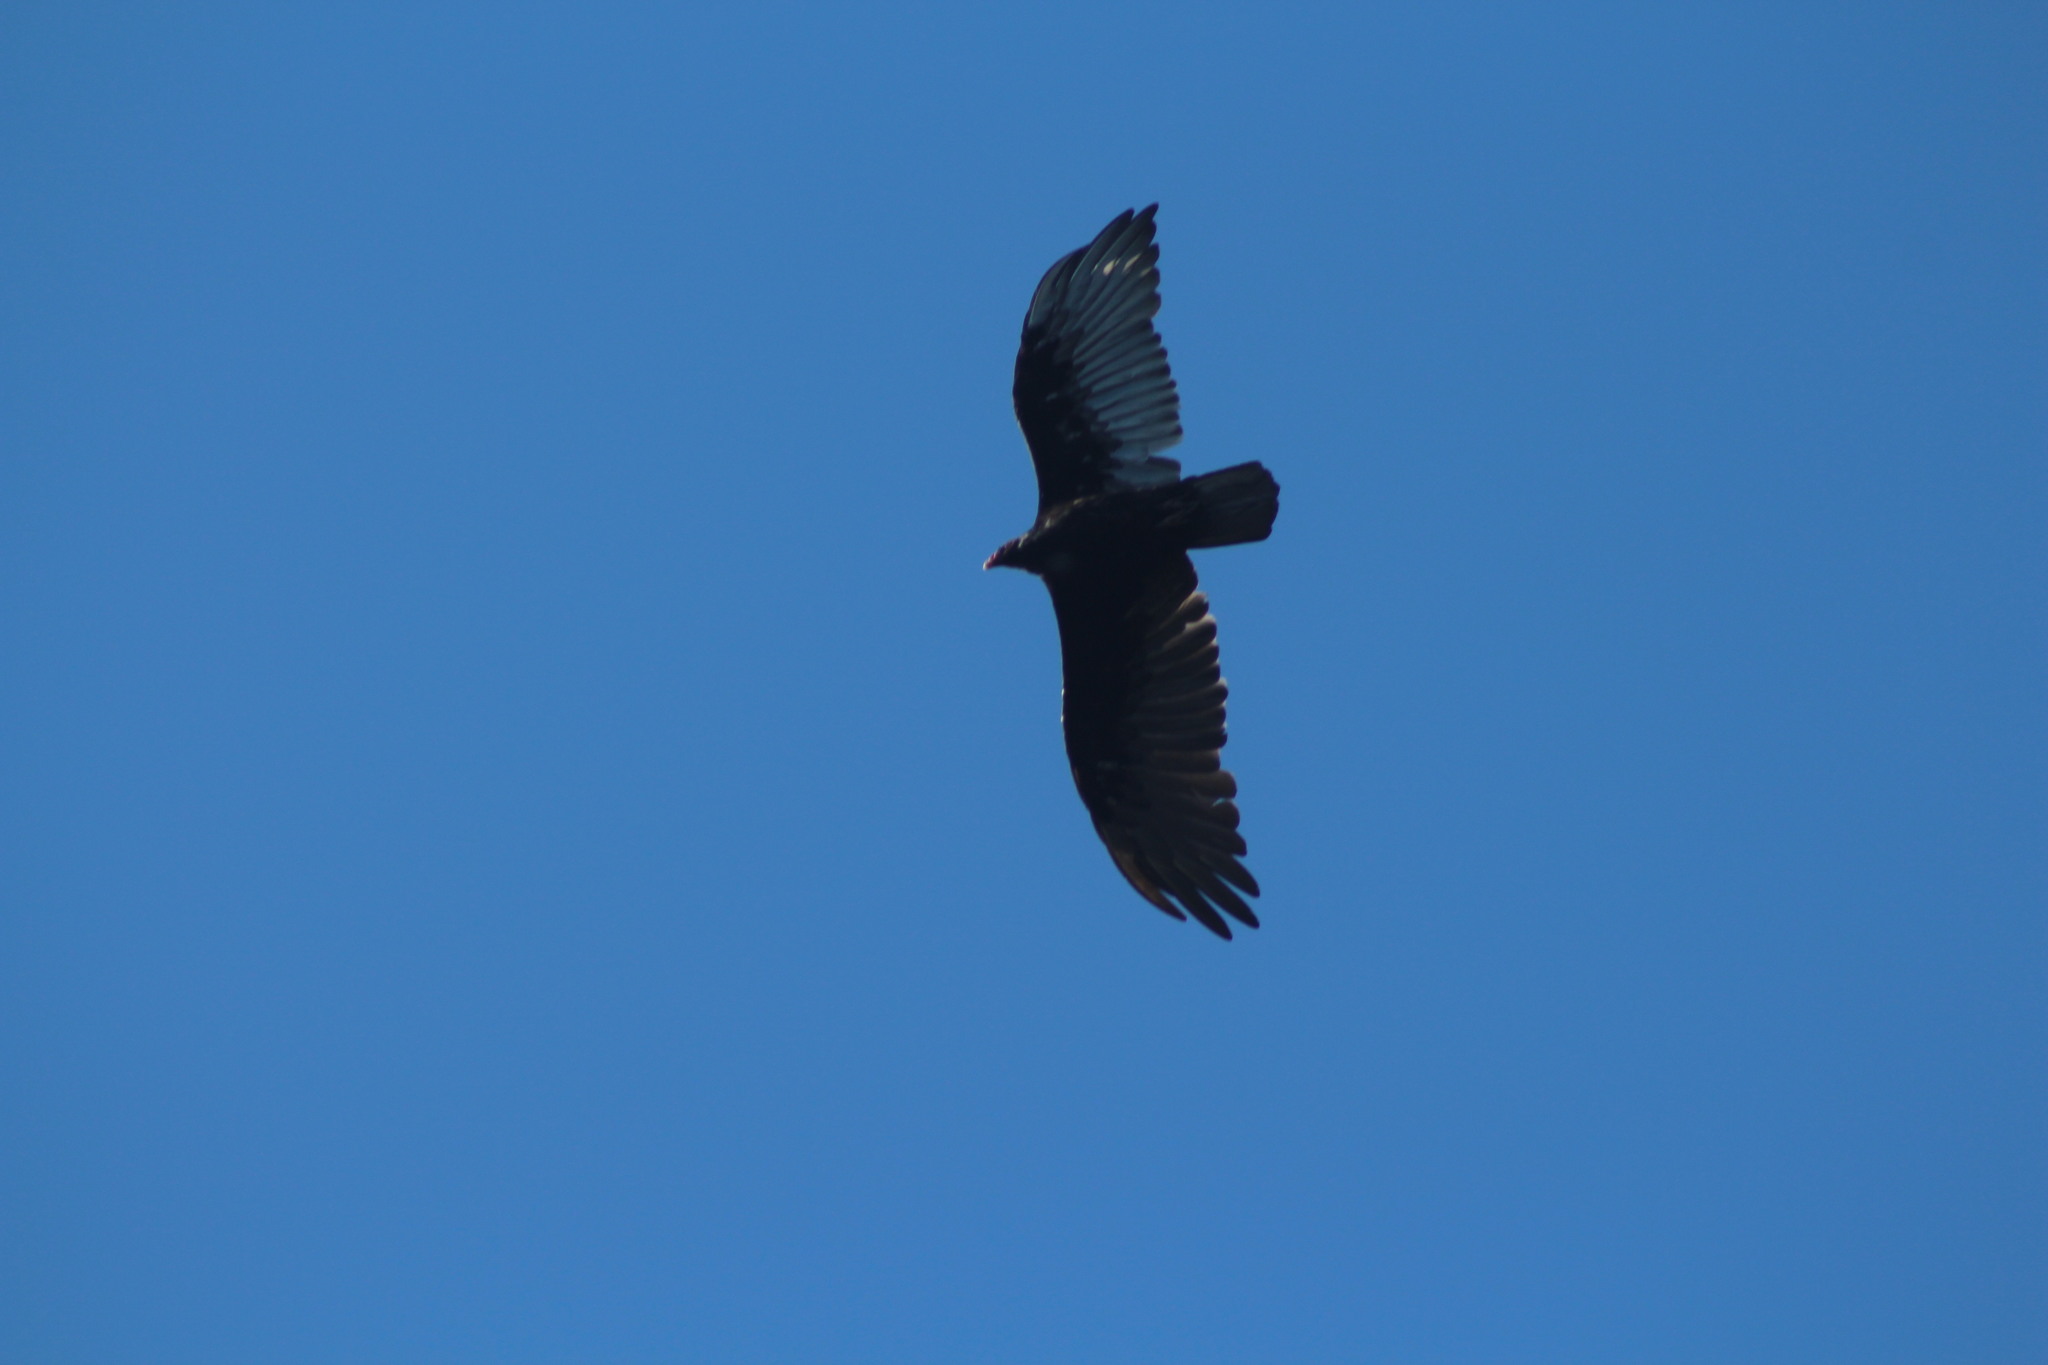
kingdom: Animalia
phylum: Chordata
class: Aves
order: Accipitriformes
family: Cathartidae
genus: Cathartes
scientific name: Cathartes aura
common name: Turkey vulture
